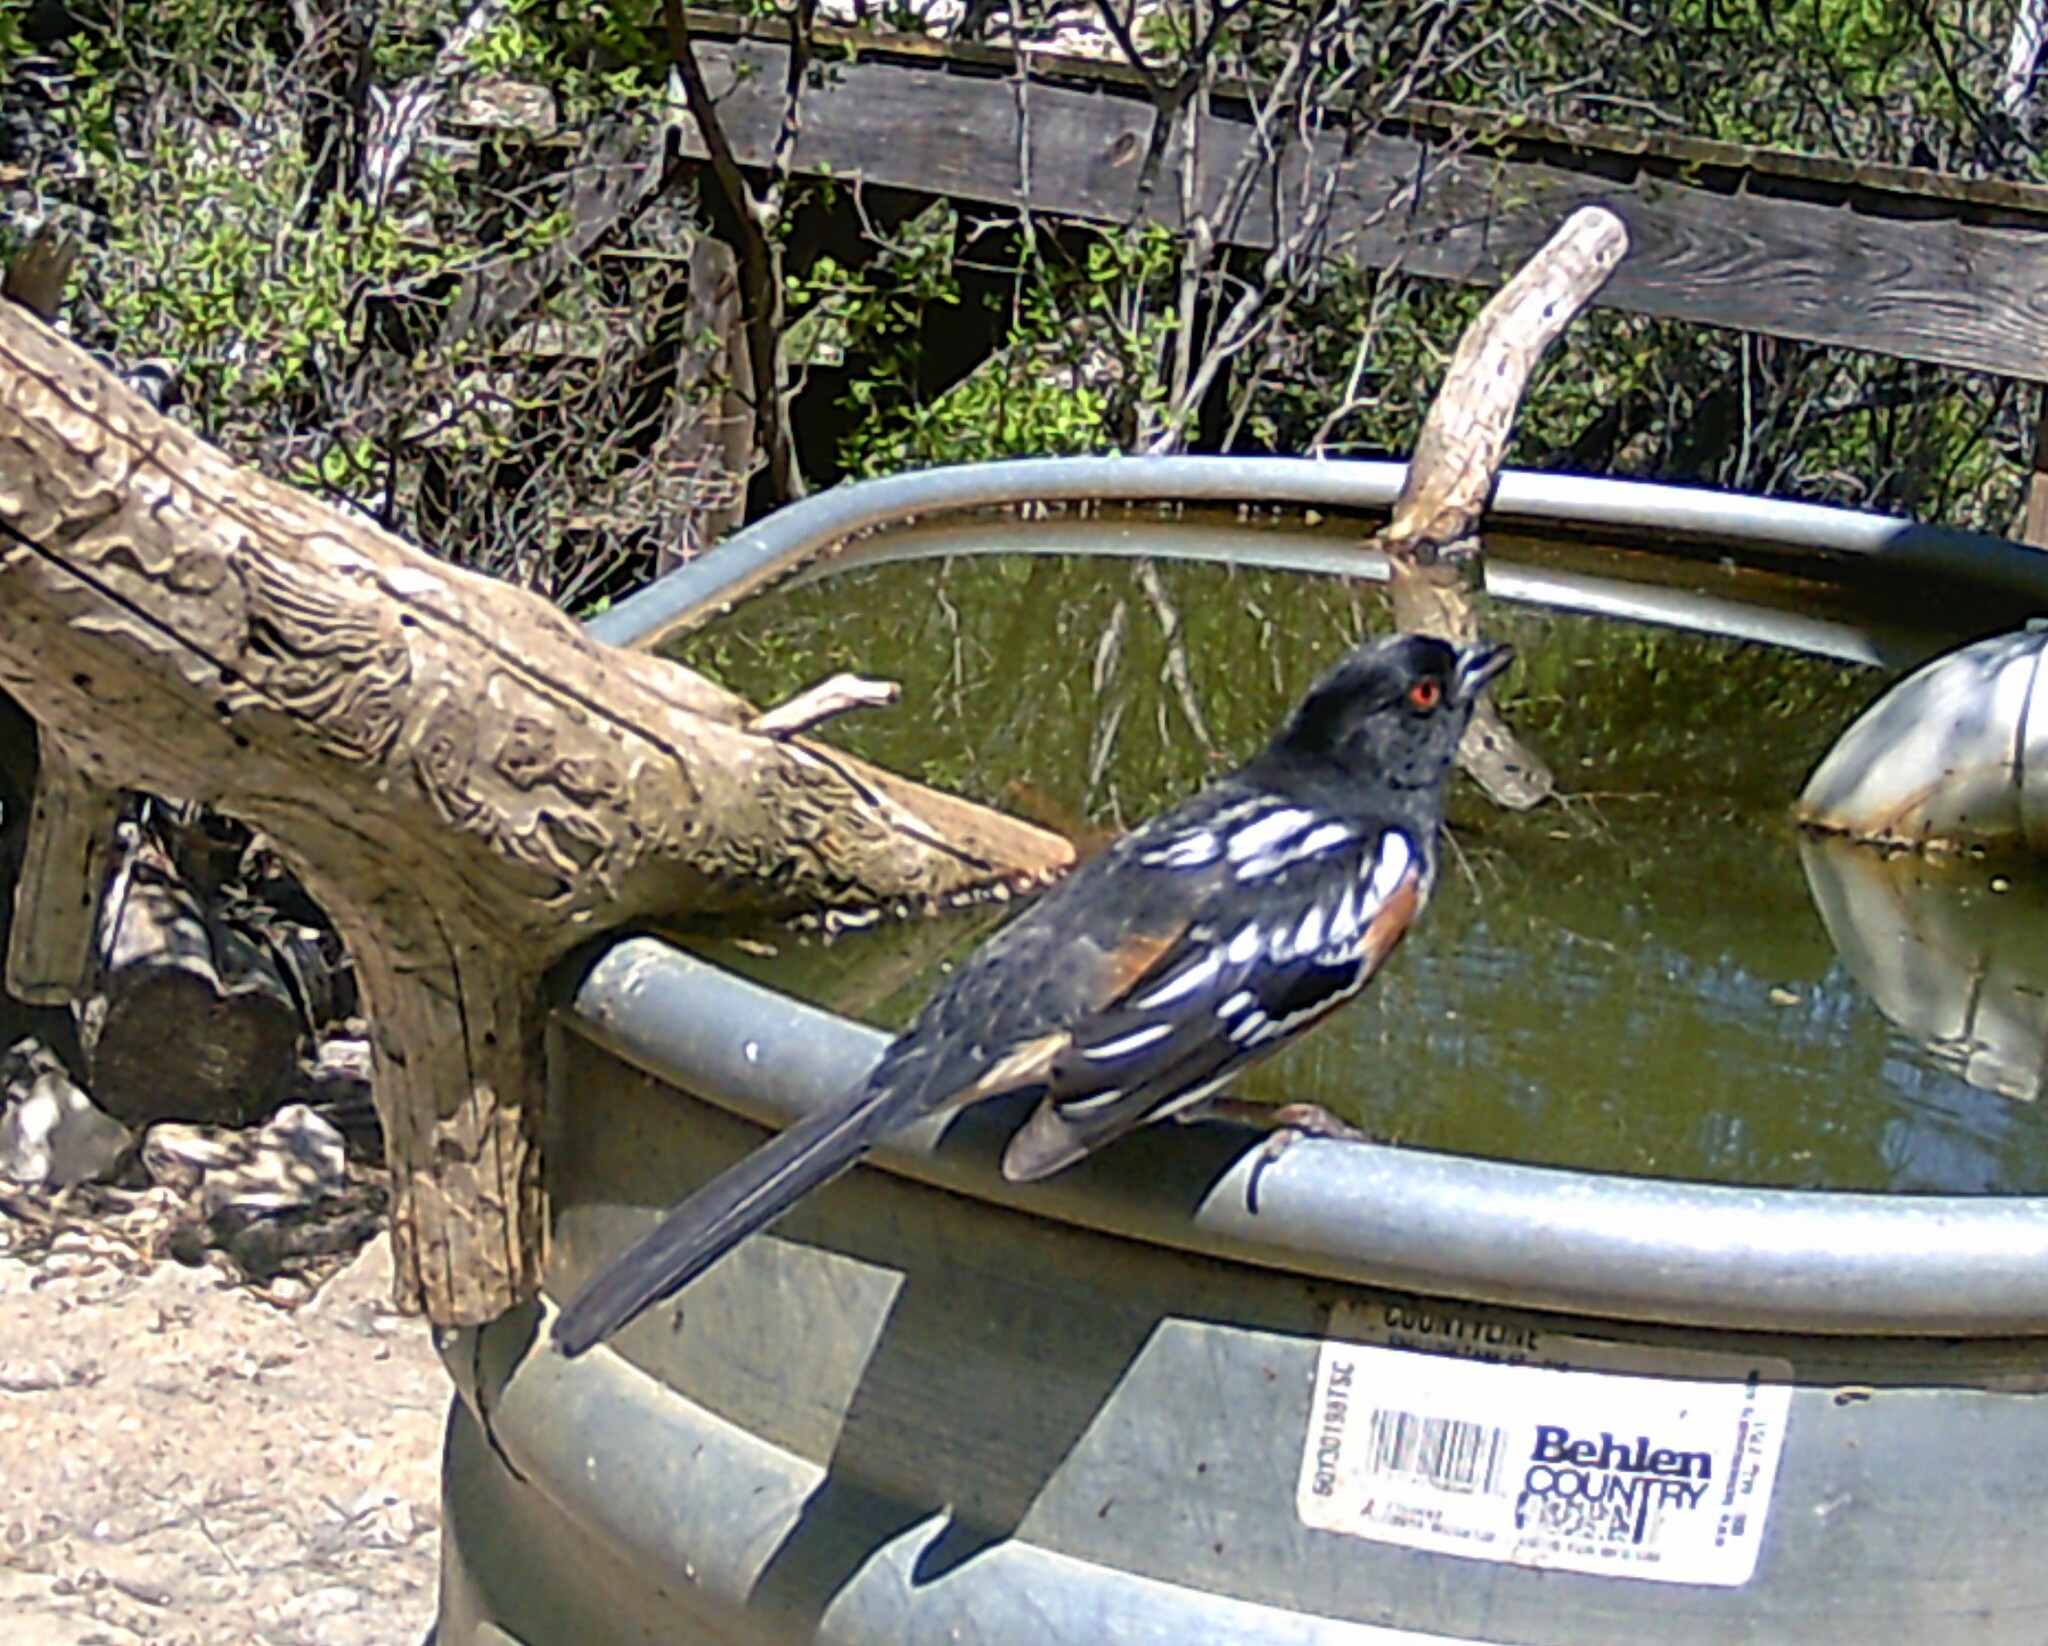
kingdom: Animalia
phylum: Chordata
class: Aves
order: Passeriformes
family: Passerellidae
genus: Pipilo
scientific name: Pipilo maculatus
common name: Spotted towhee
